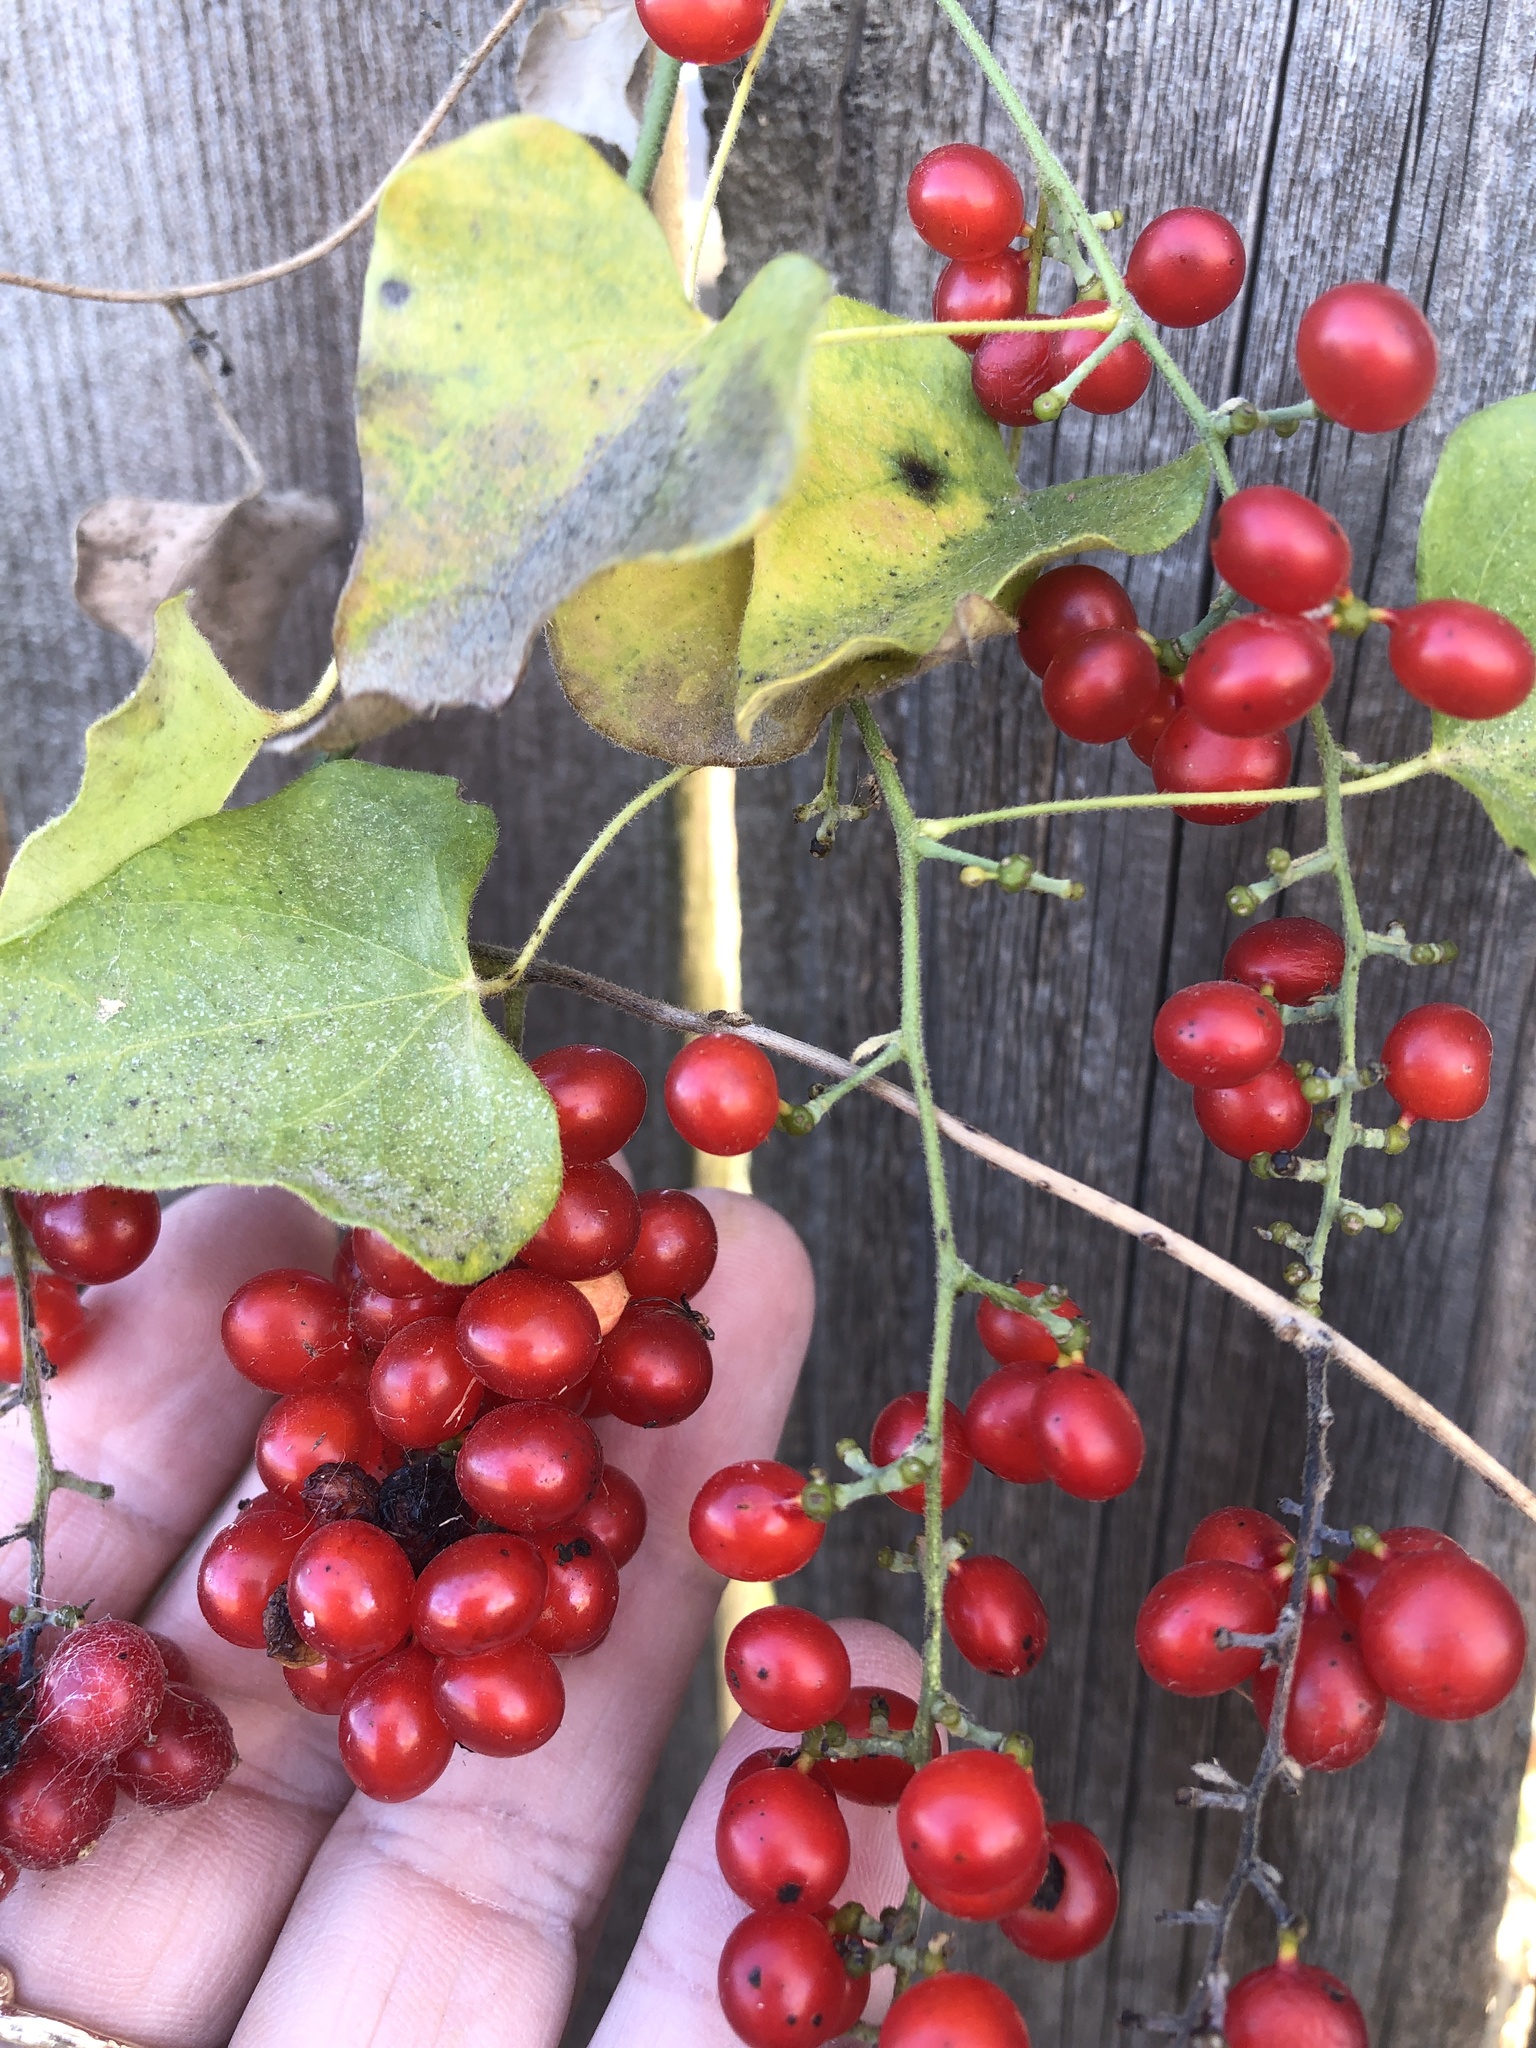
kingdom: Plantae
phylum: Tracheophyta
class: Magnoliopsida
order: Ranunculales
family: Menispermaceae
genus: Cocculus
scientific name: Cocculus carolinus
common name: Carolina moonseed
